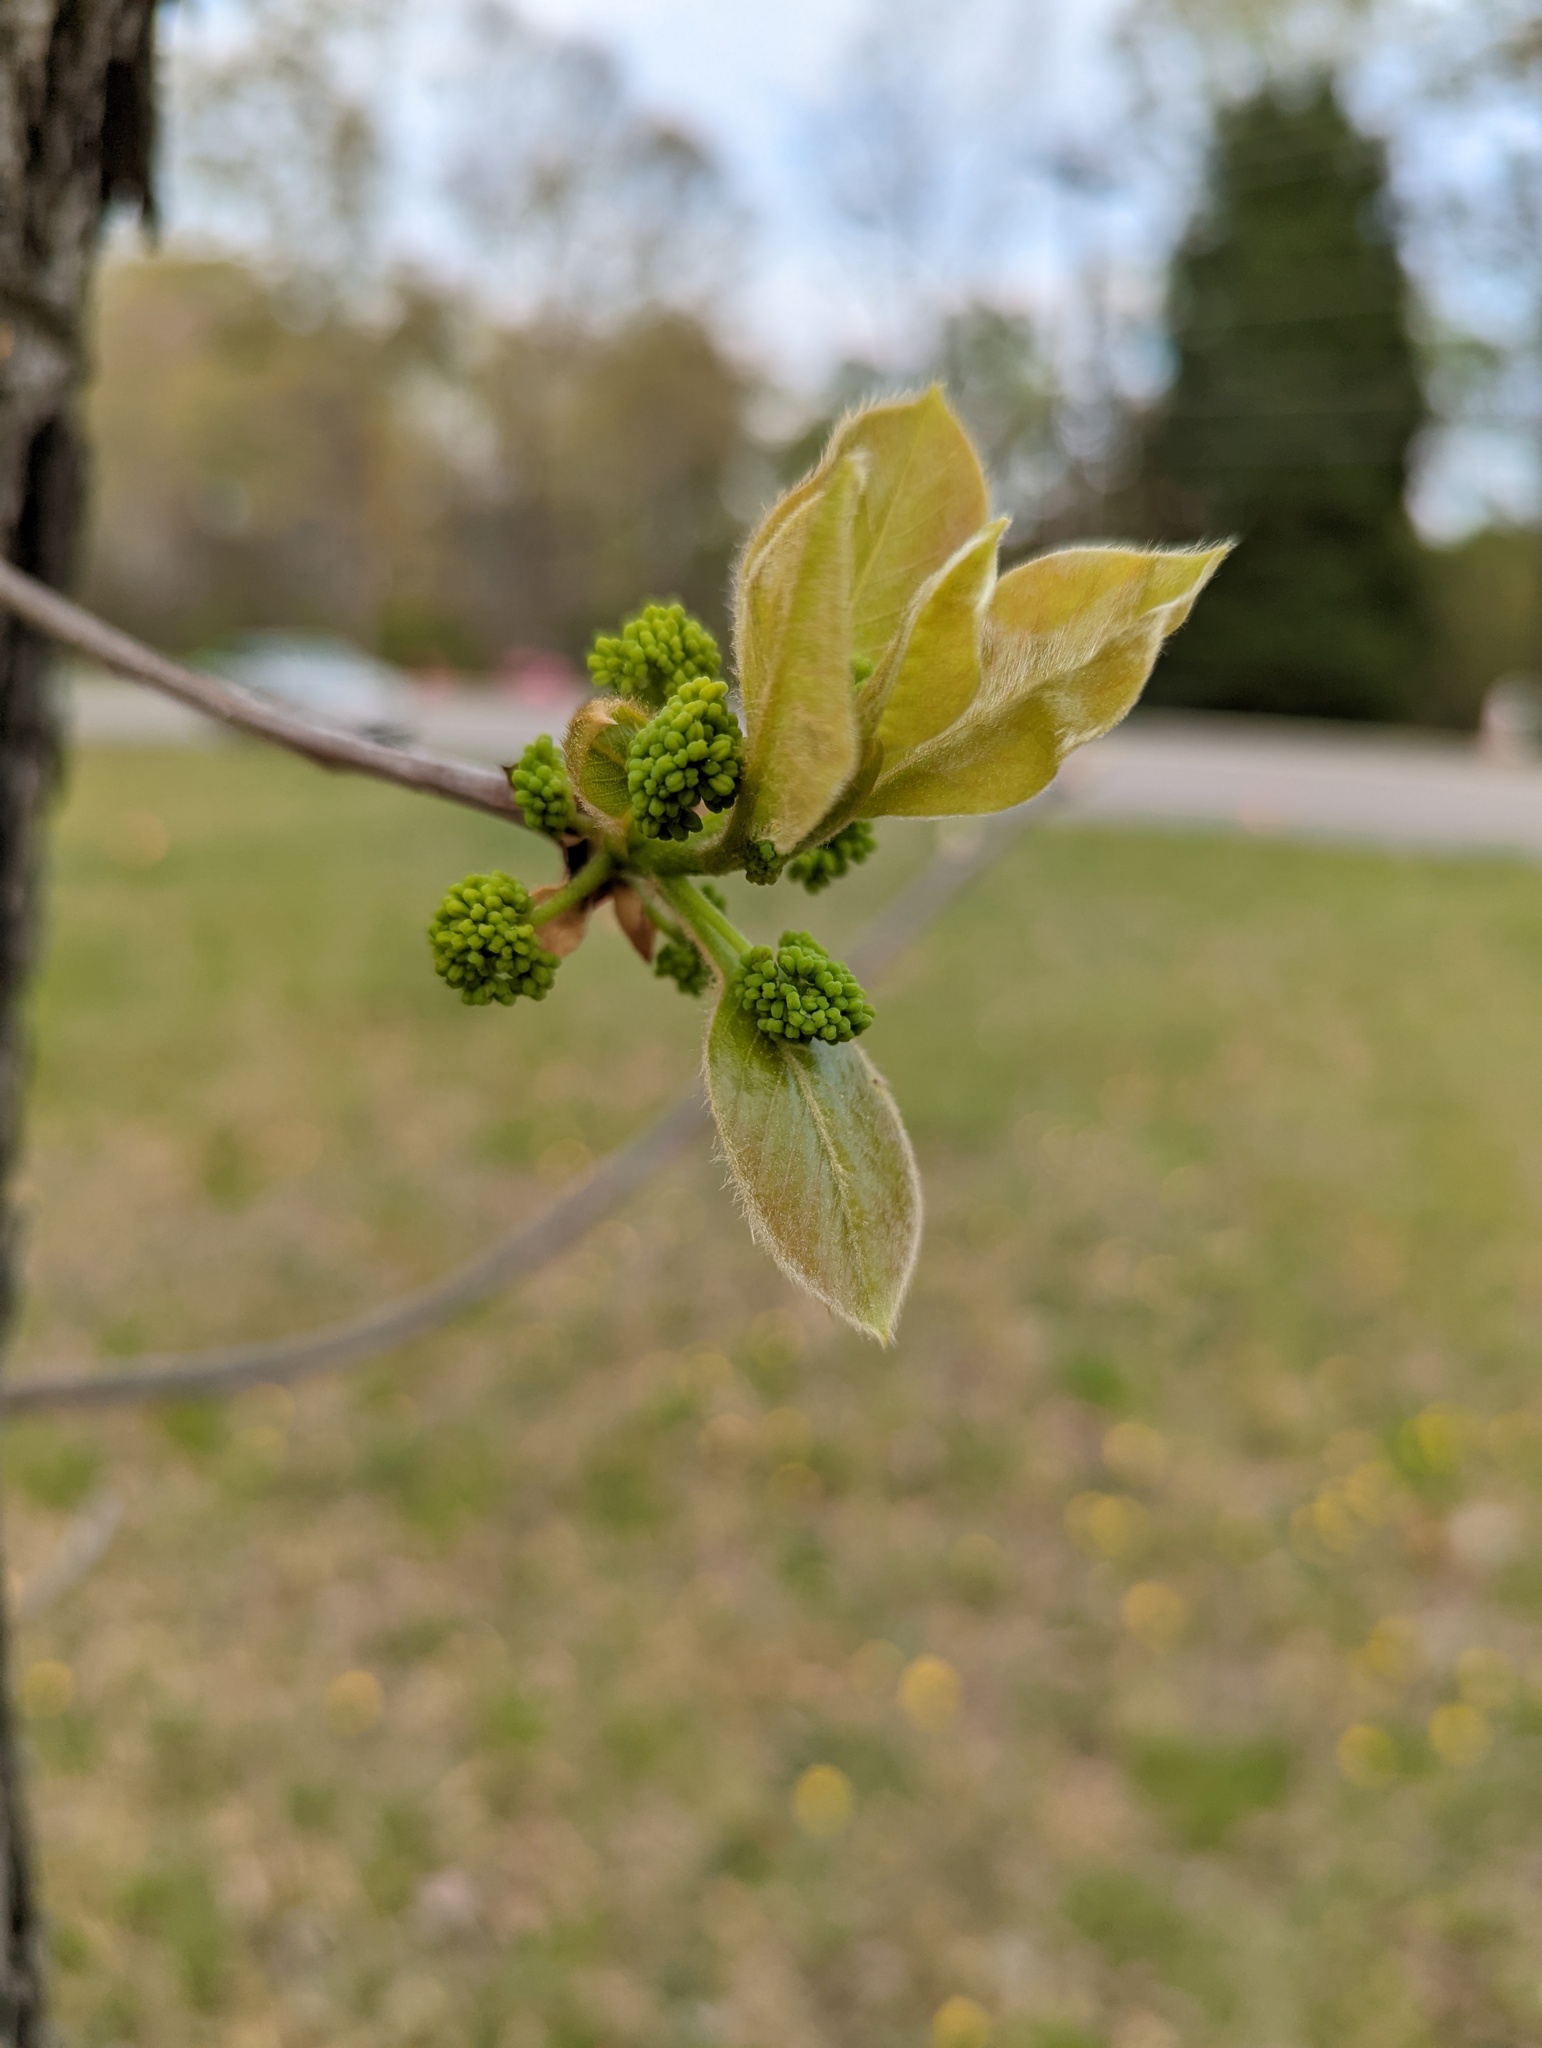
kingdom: Plantae
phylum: Tracheophyta
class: Magnoliopsida
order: Cornales
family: Nyssaceae
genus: Nyssa
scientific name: Nyssa sylvatica
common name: Black tupelo
